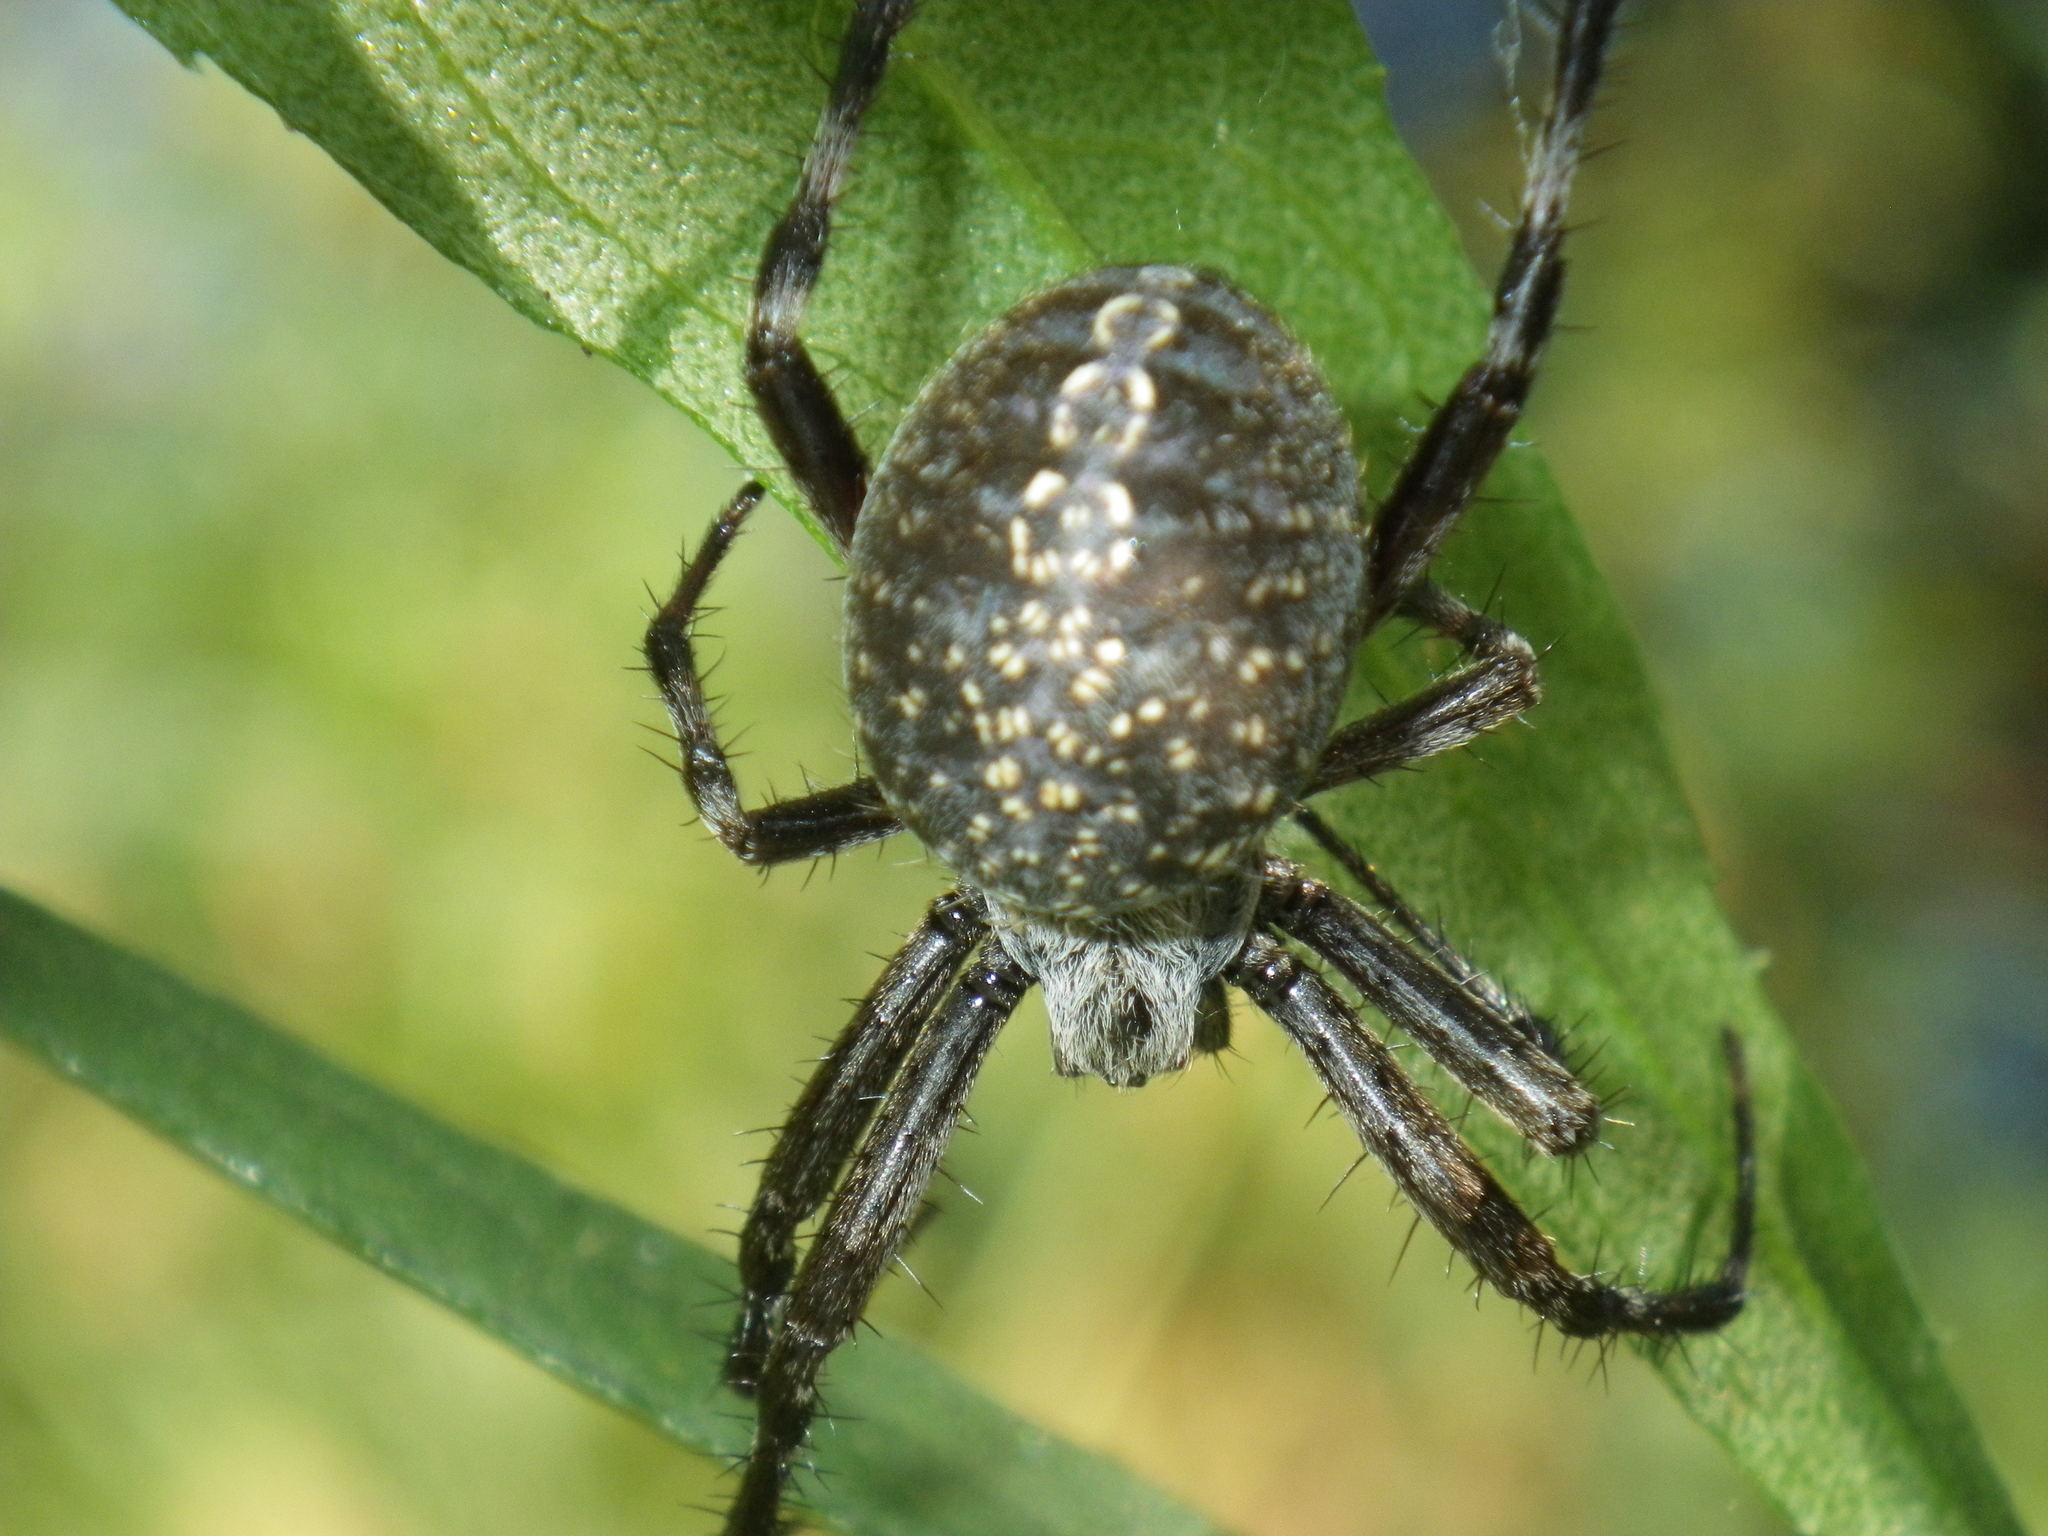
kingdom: Animalia
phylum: Arthropoda
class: Arachnida
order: Araneae
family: Araneidae
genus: Neoscona
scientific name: Neoscona oaxacensis
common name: Orb weavers
